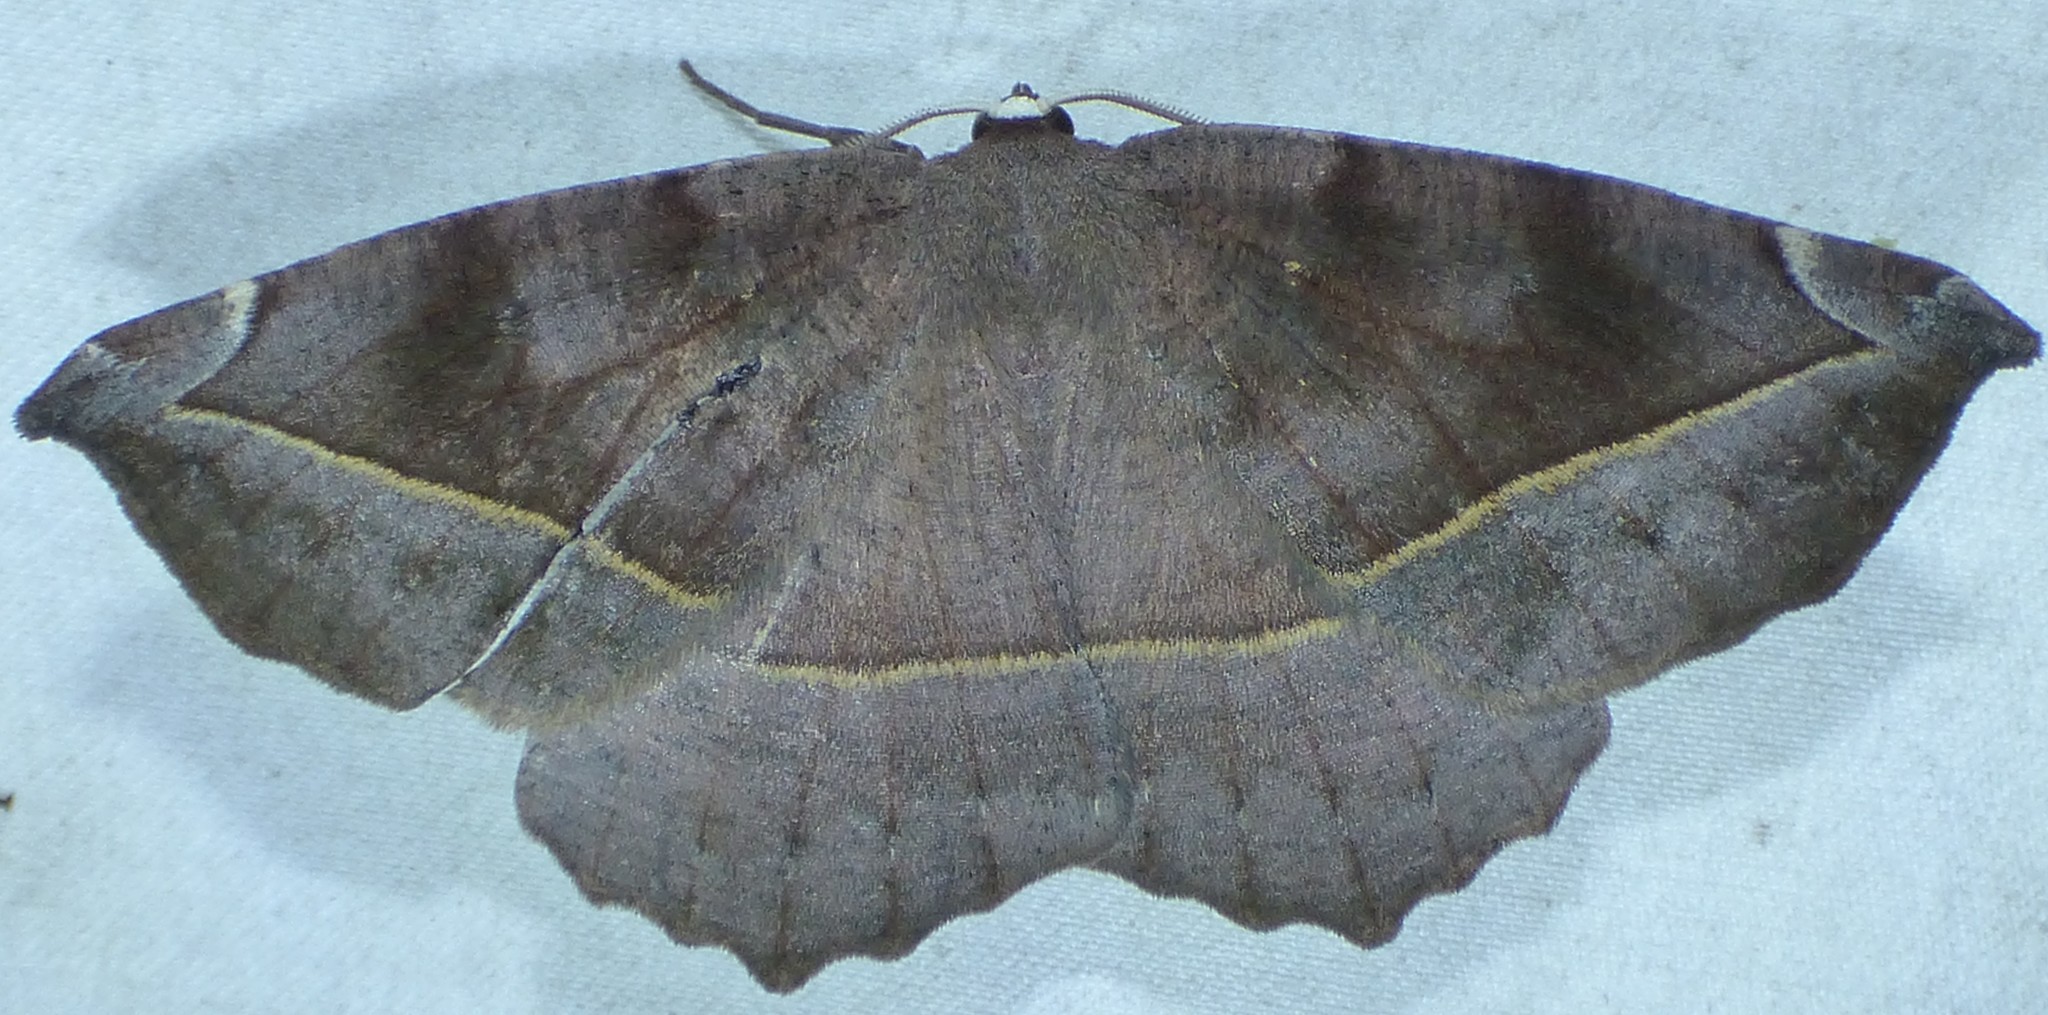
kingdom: Animalia
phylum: Arthropoda
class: Insecta
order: Lepidoptera
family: Geometridae
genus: Eutrapela
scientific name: Eutrapela clemataria
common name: Curved-toothed geometer
